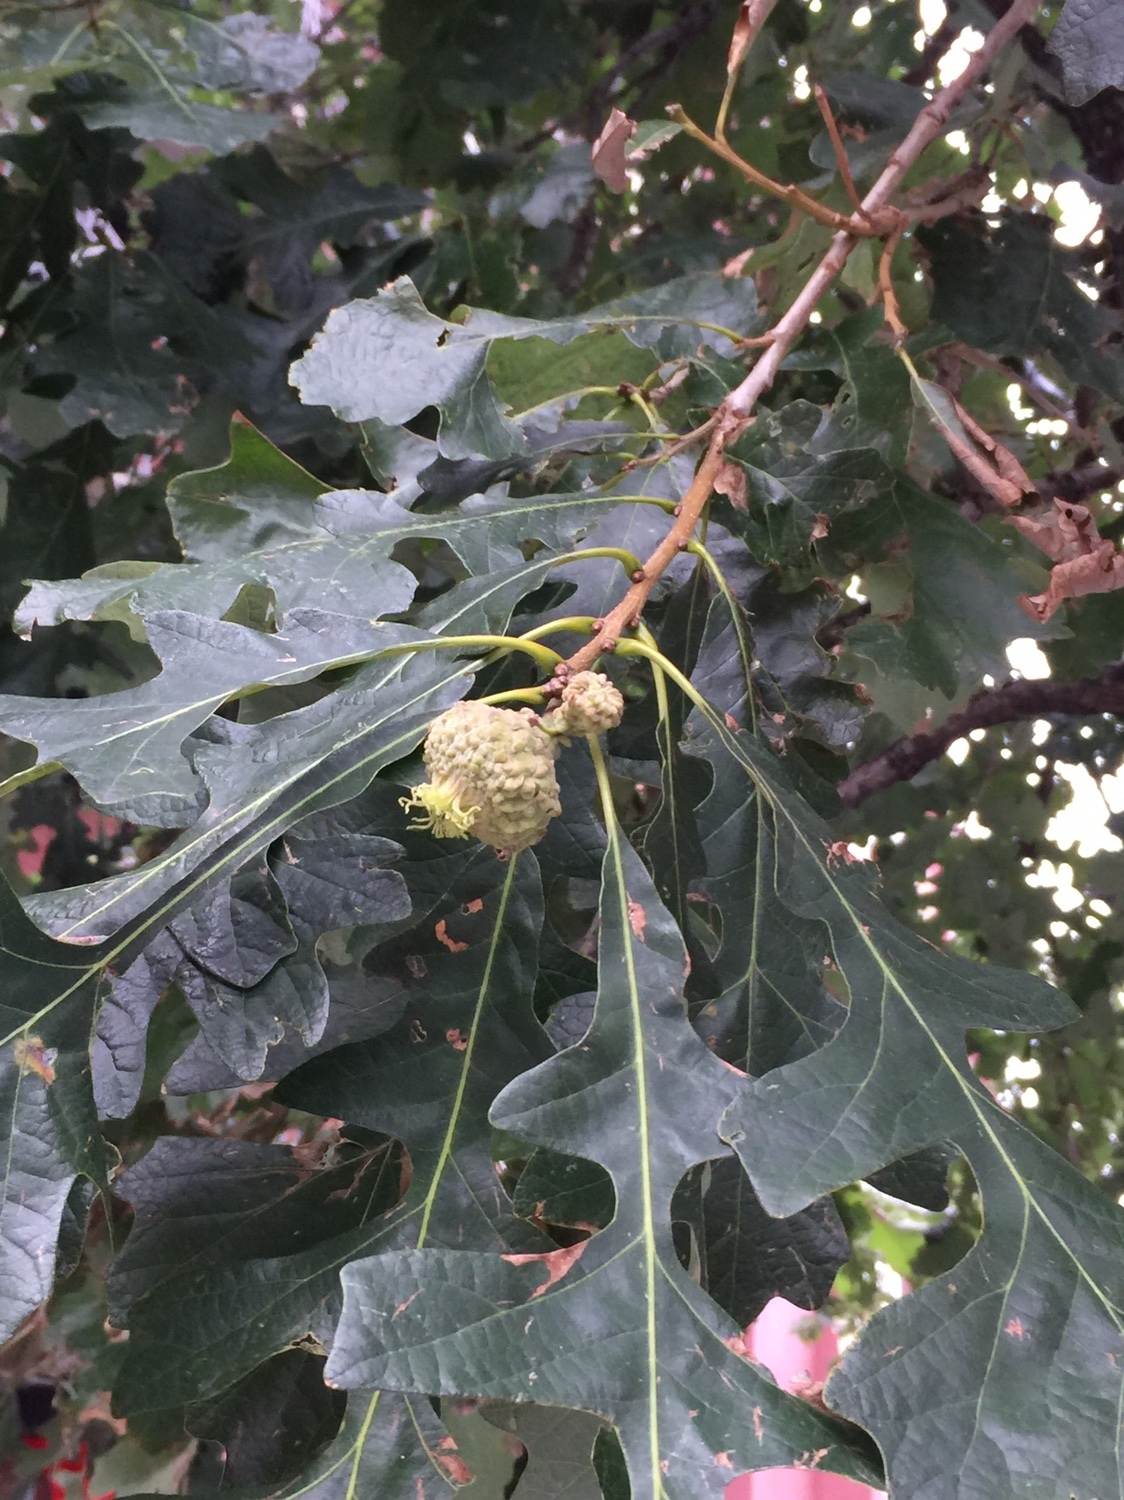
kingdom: Plantae
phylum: Tracheophyta
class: Magnoliopsida
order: Fagales
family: Fagaceae
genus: Quercus
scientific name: Quercus macrocarpa
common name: Bur oak
